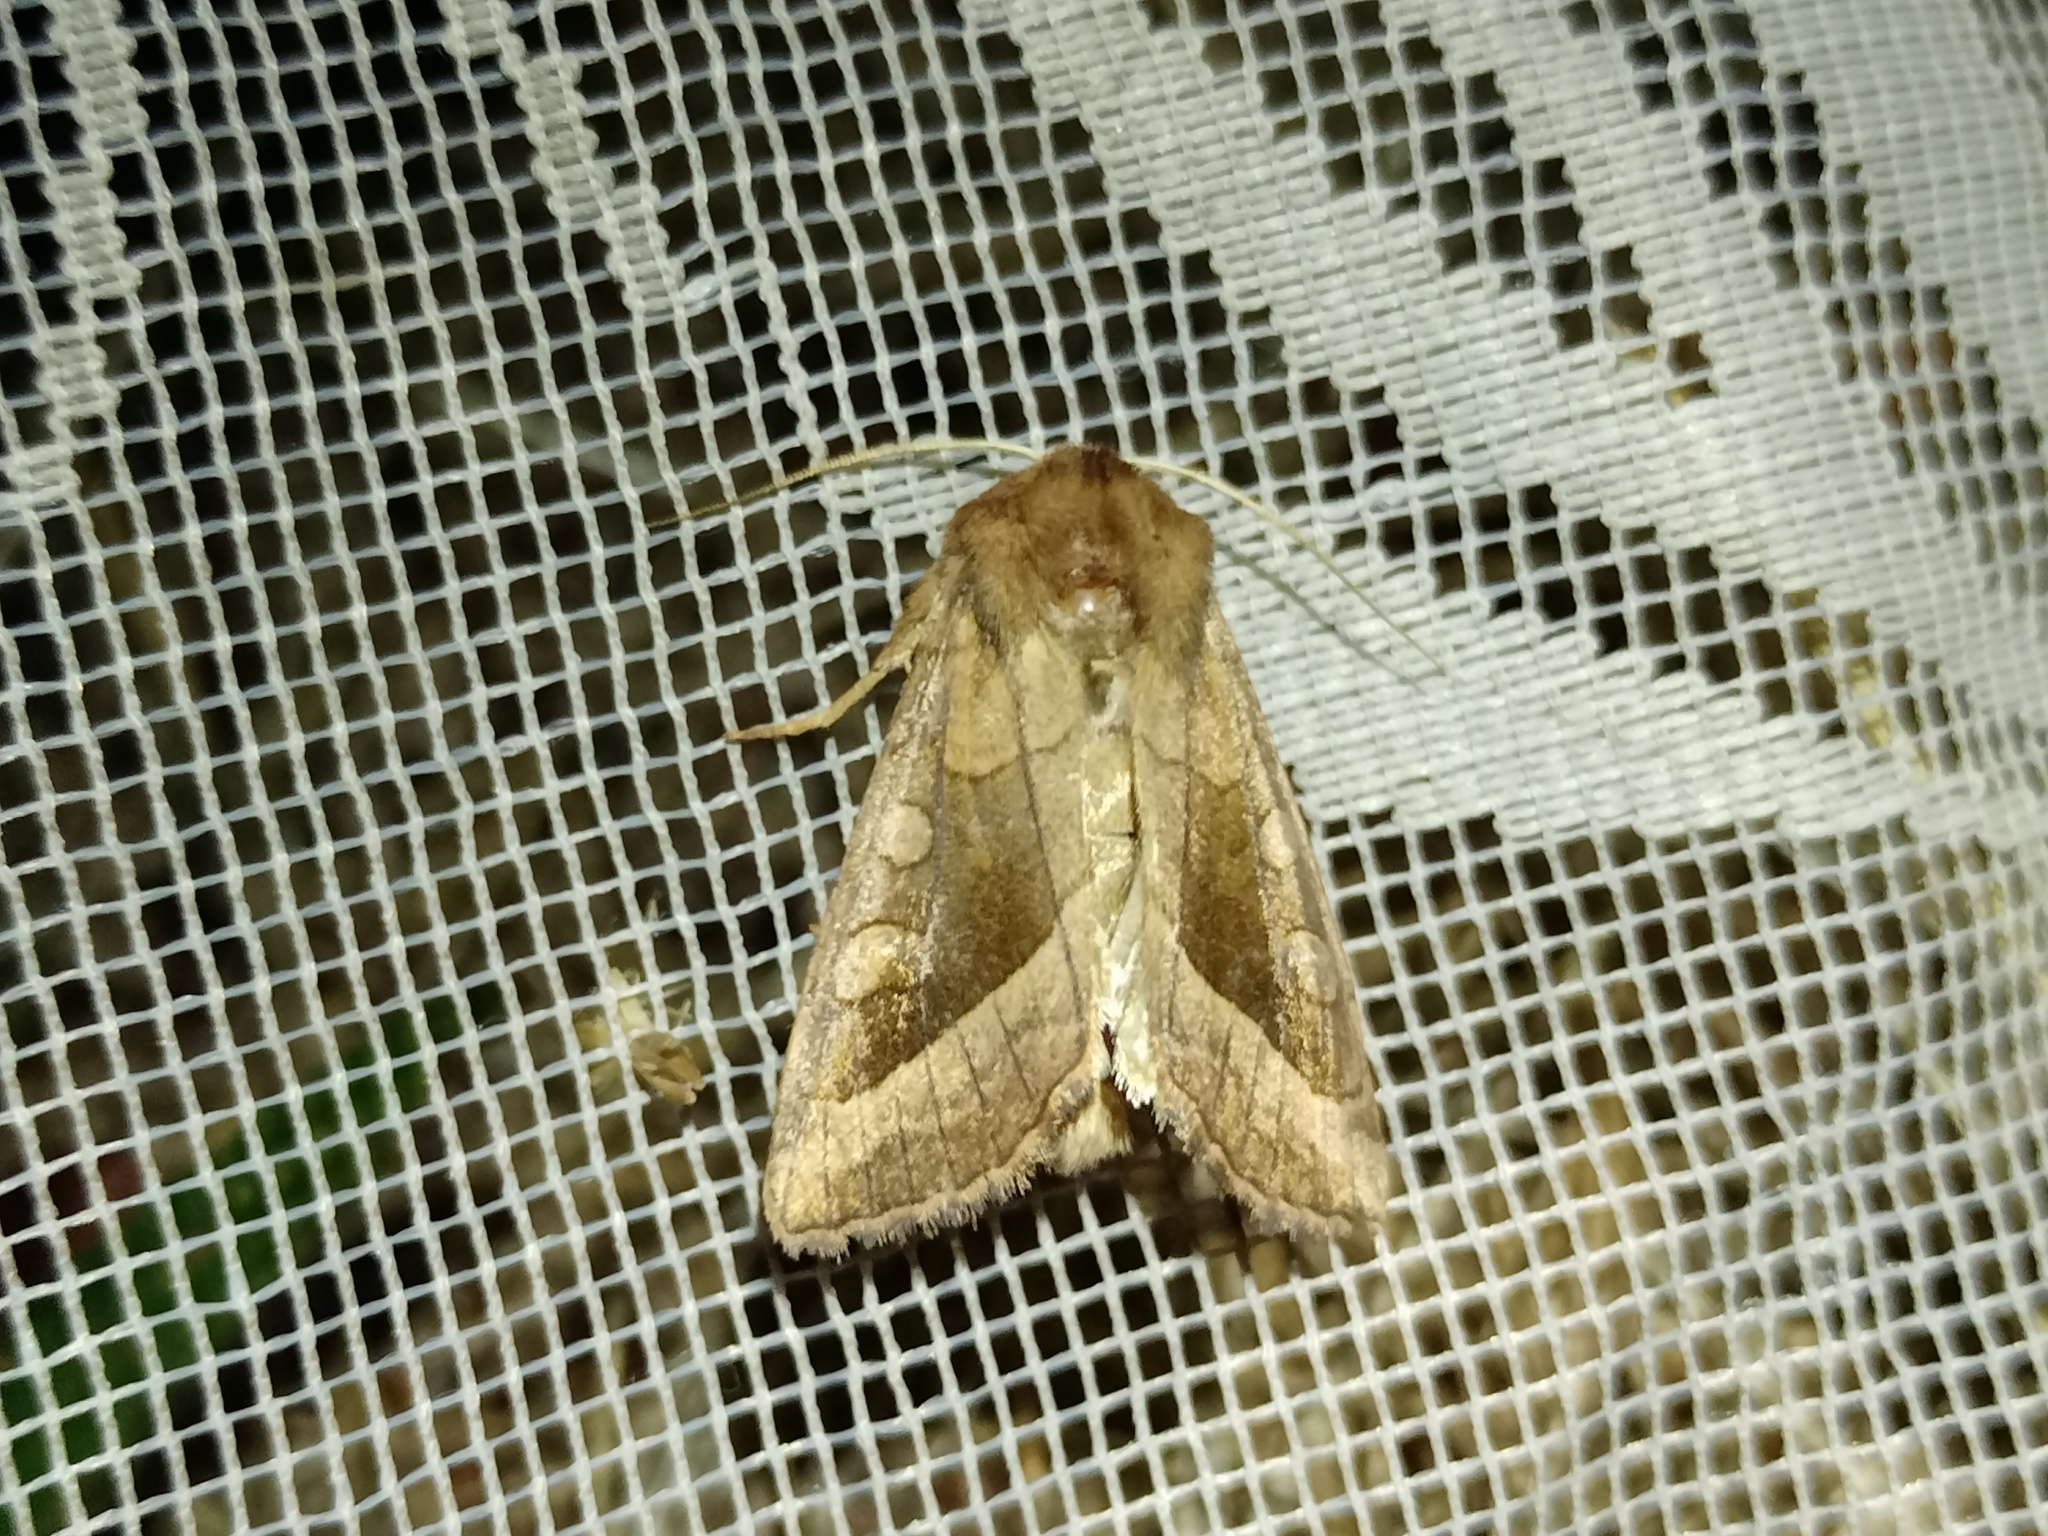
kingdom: Animalia
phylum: Arthropoda
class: Insecta
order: Lepidoptera
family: Noctuidae
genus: Hydraecia
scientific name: Hydraecia micacea
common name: Rosy rustic
